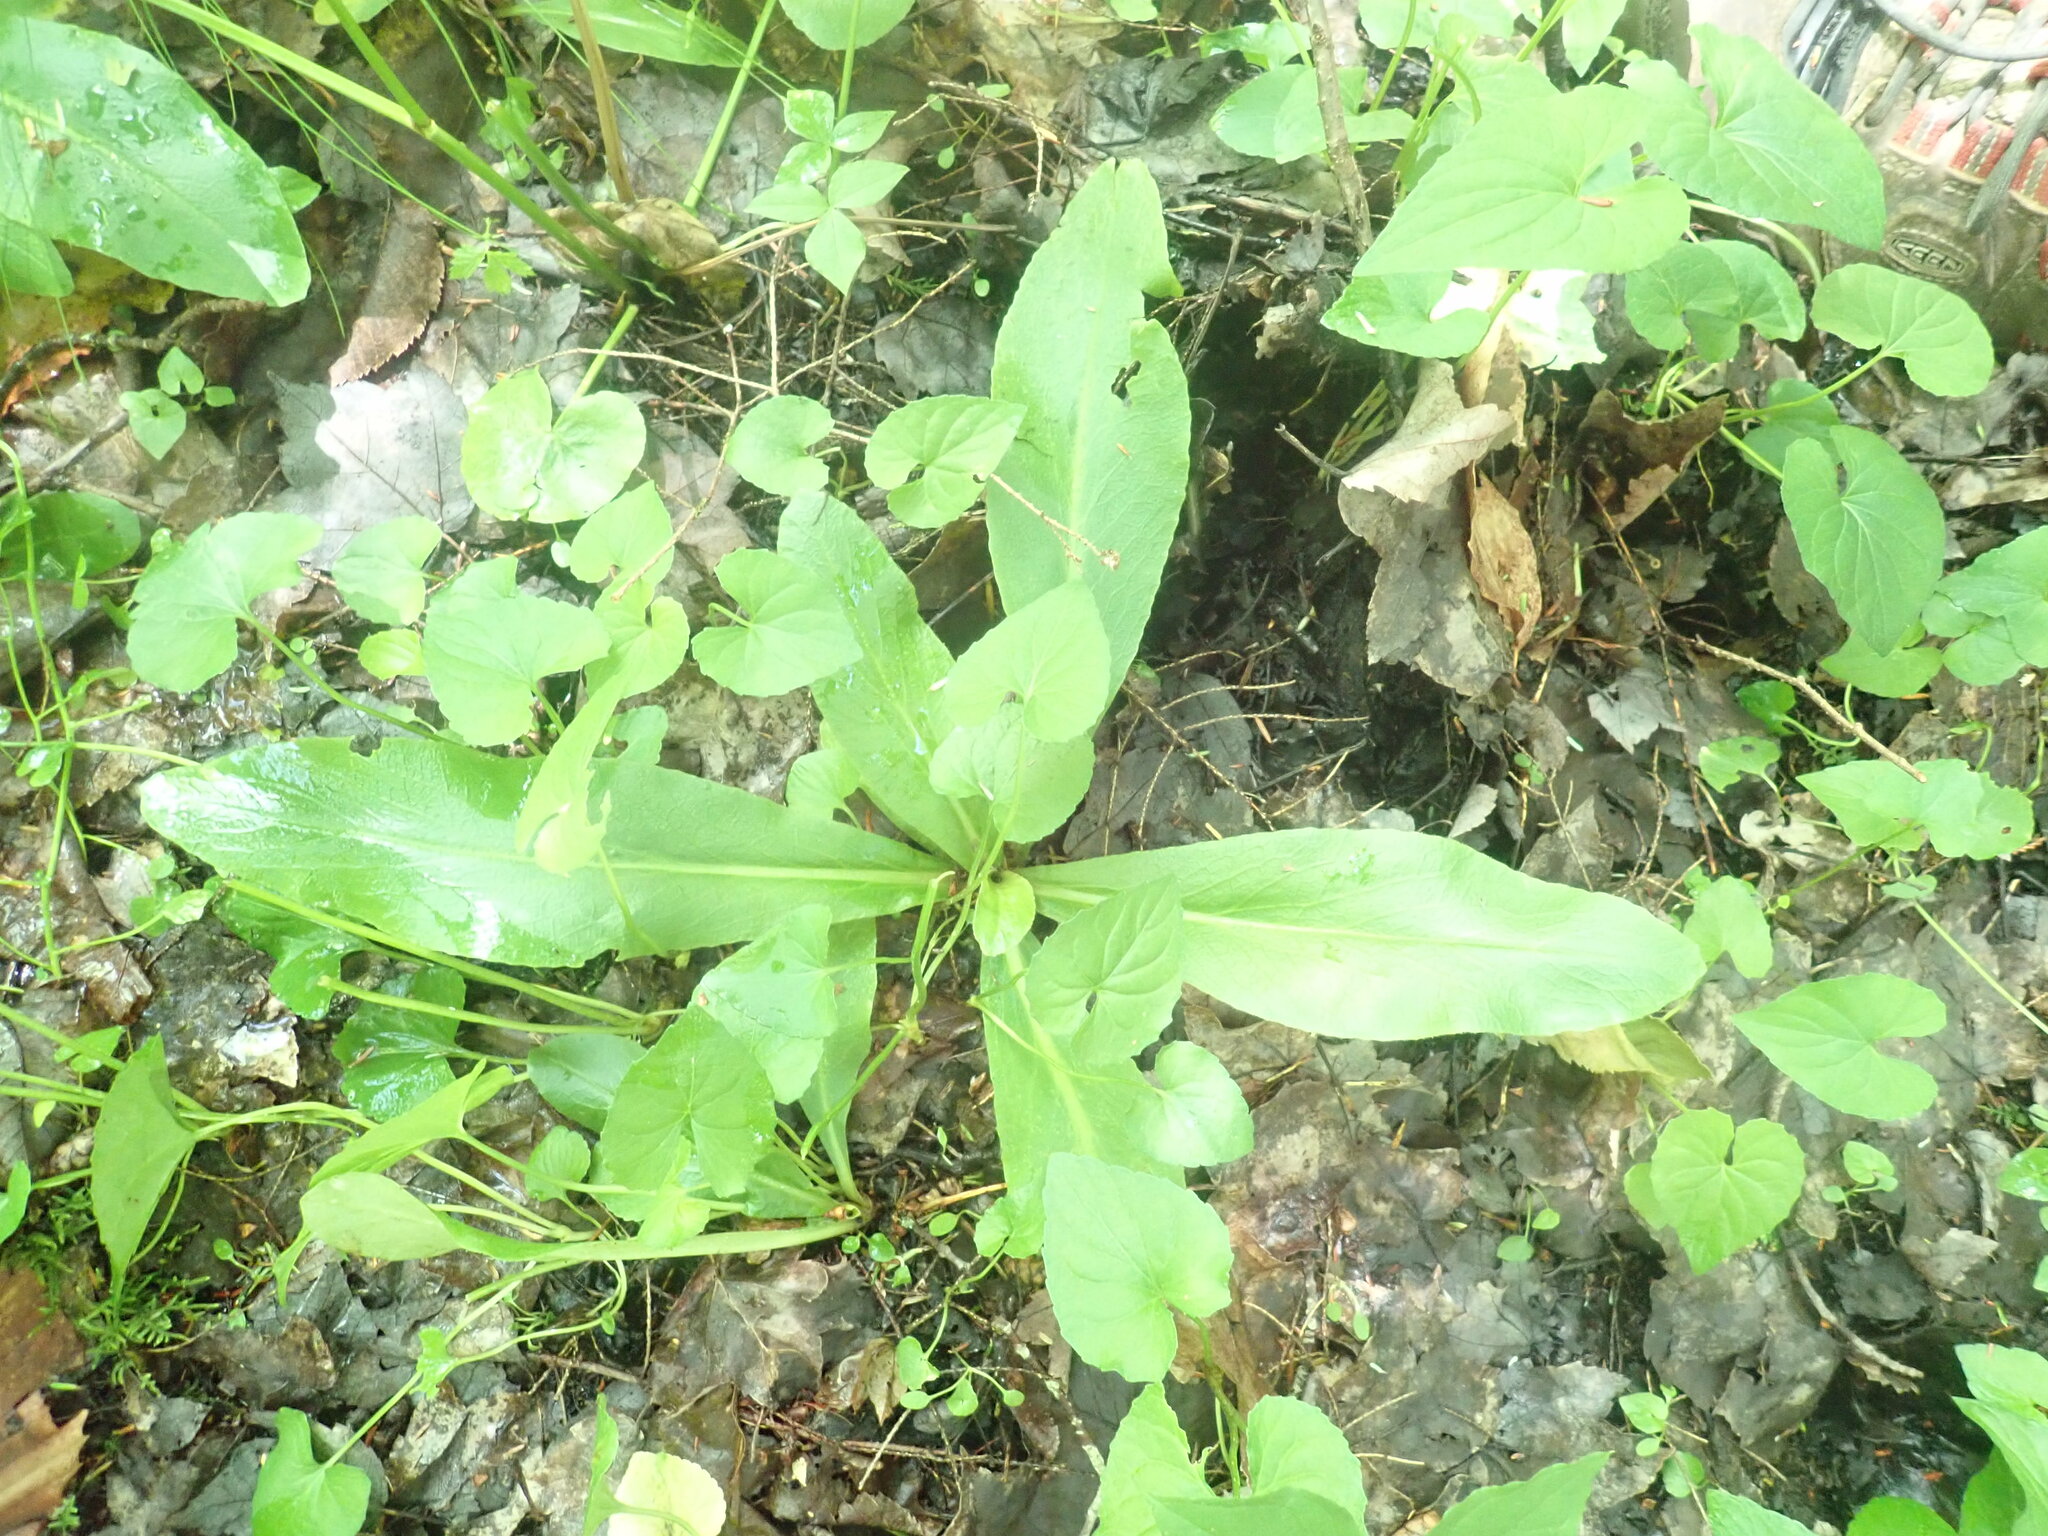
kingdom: Plantae
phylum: Tracheophyta
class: Magnoliopsida
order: Saxifragales
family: Saxifragaceae
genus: Micranthes
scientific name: Micranthes pensylvanica
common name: Marsh saxifrage
